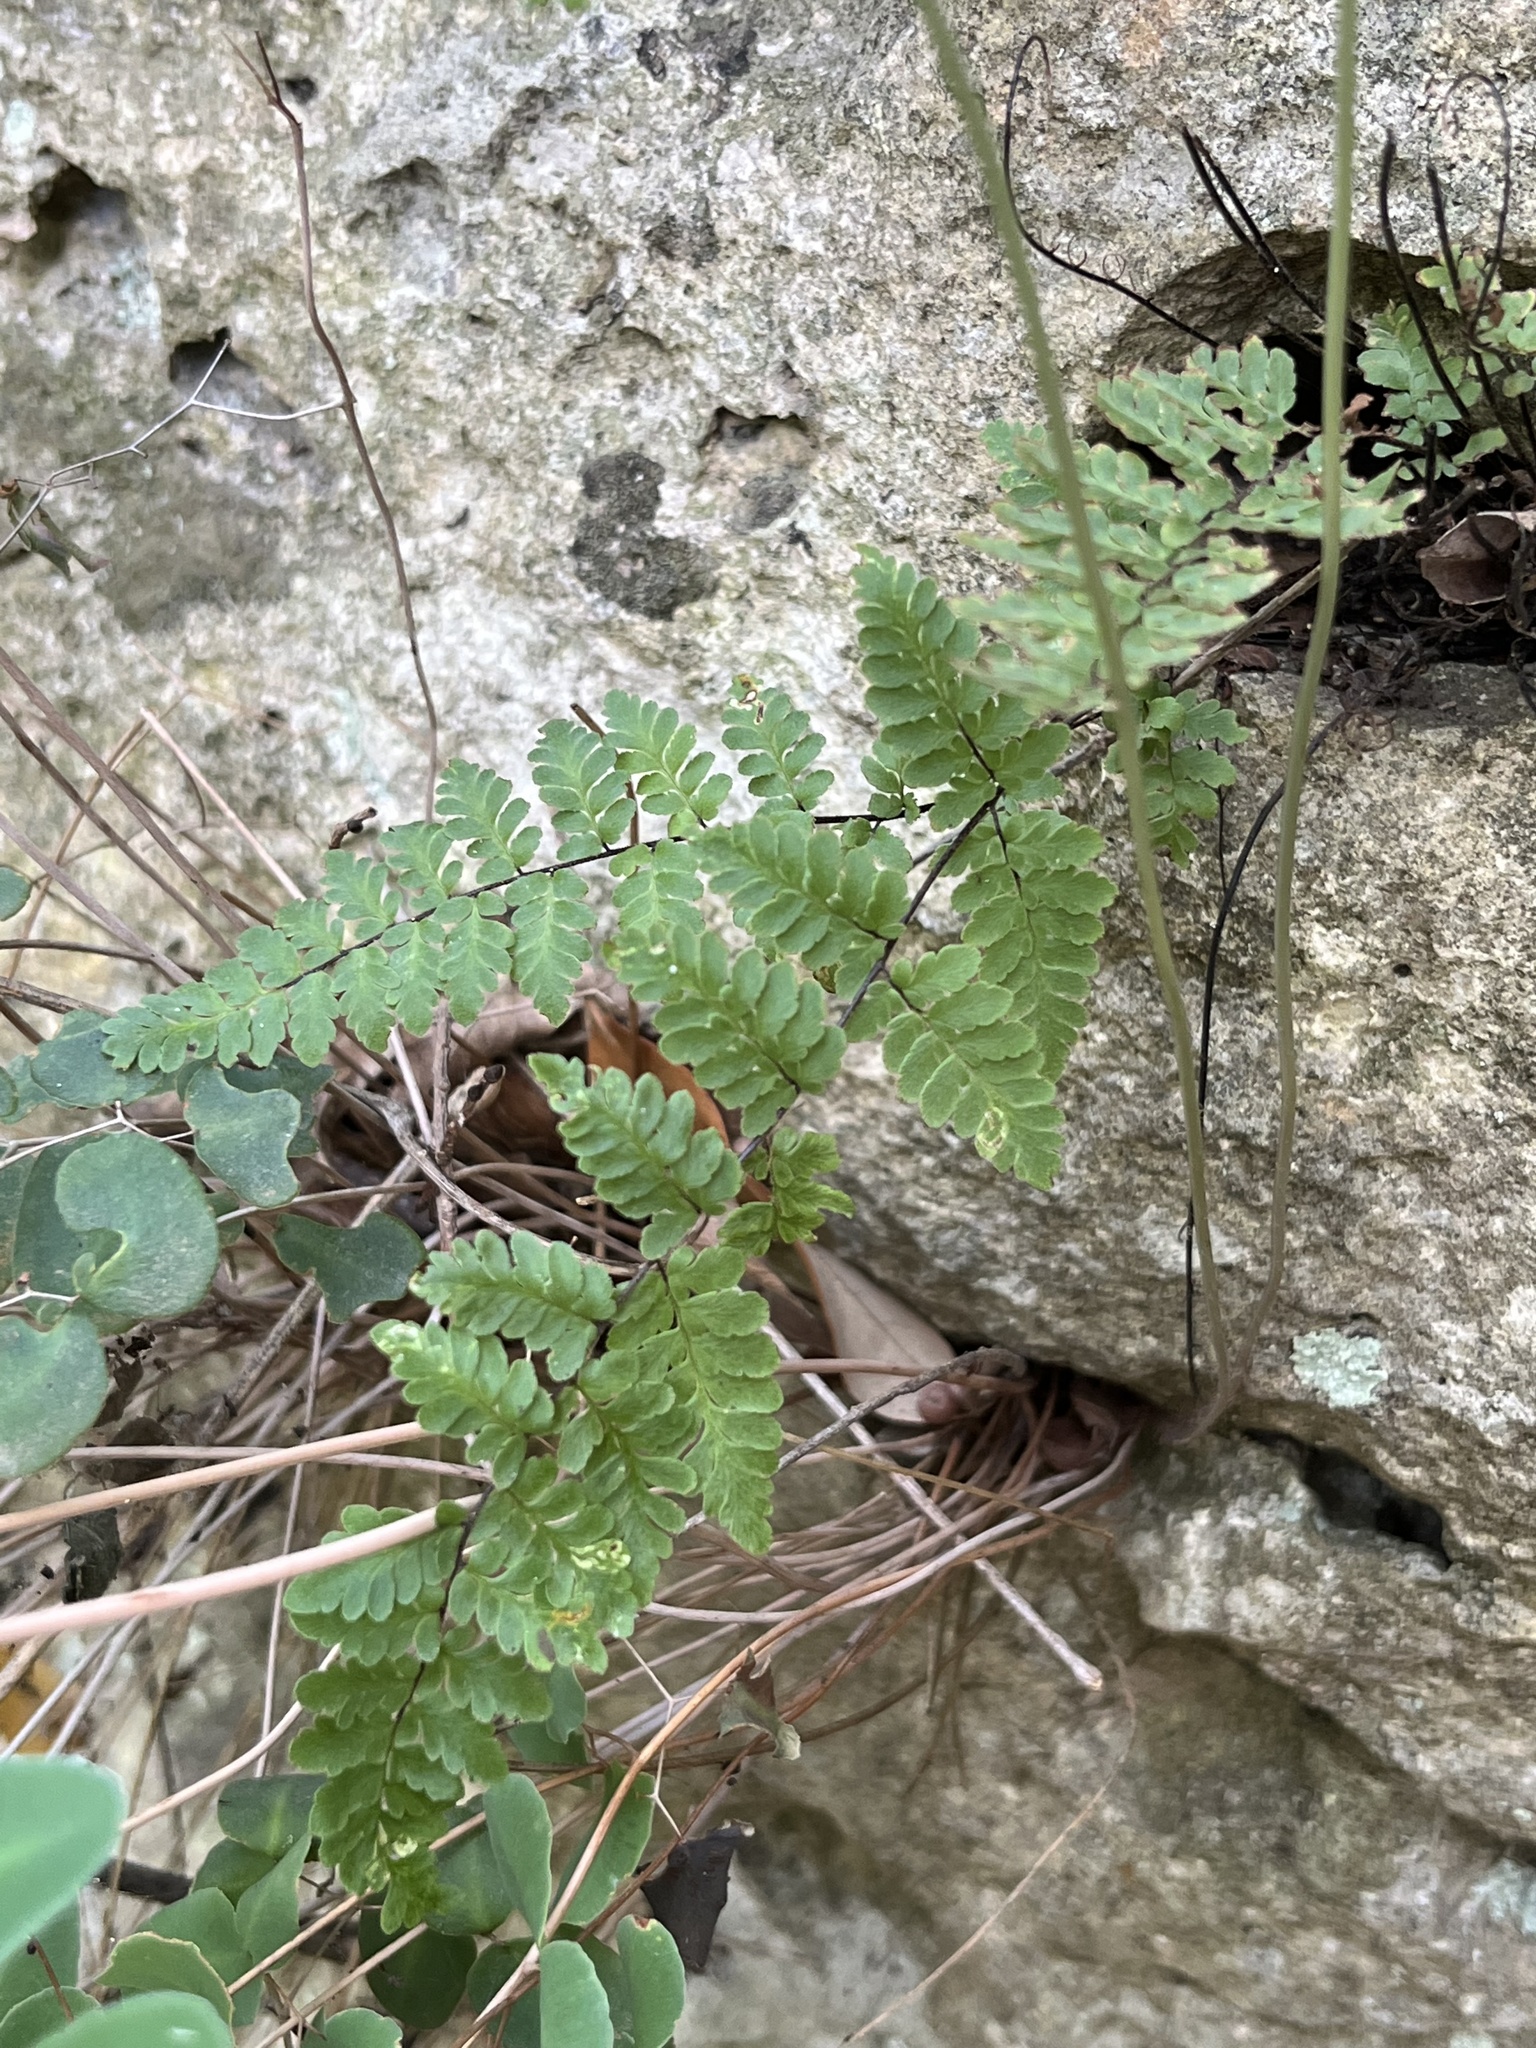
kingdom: Plantae
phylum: Tracheophyta
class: Polypodiopsida
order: Polypodiales
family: Pteridaceae
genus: Myriopteris
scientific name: Myriopteris alabamensis
